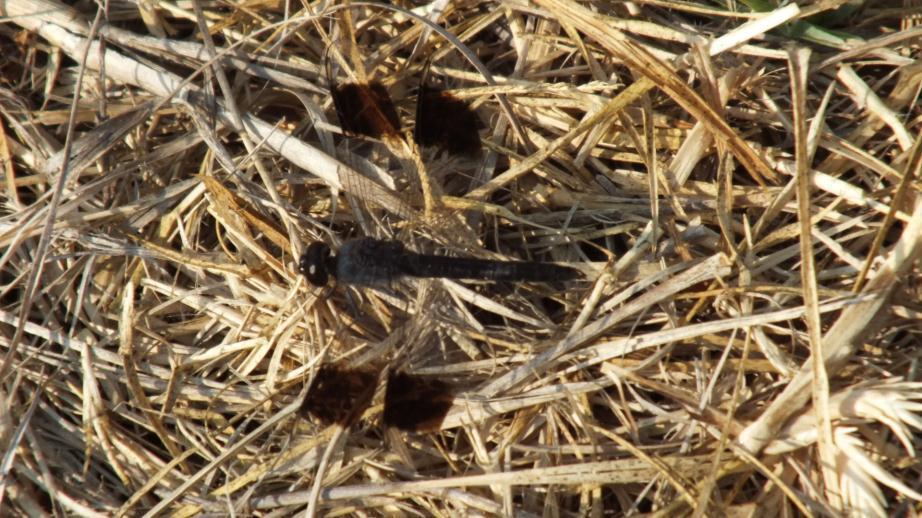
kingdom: Animalia
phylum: Arthropoda
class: Insecta
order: Odonata
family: Libellulidae
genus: Brachythemis
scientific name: Brachythemis leucosticta
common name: Banded groundling
